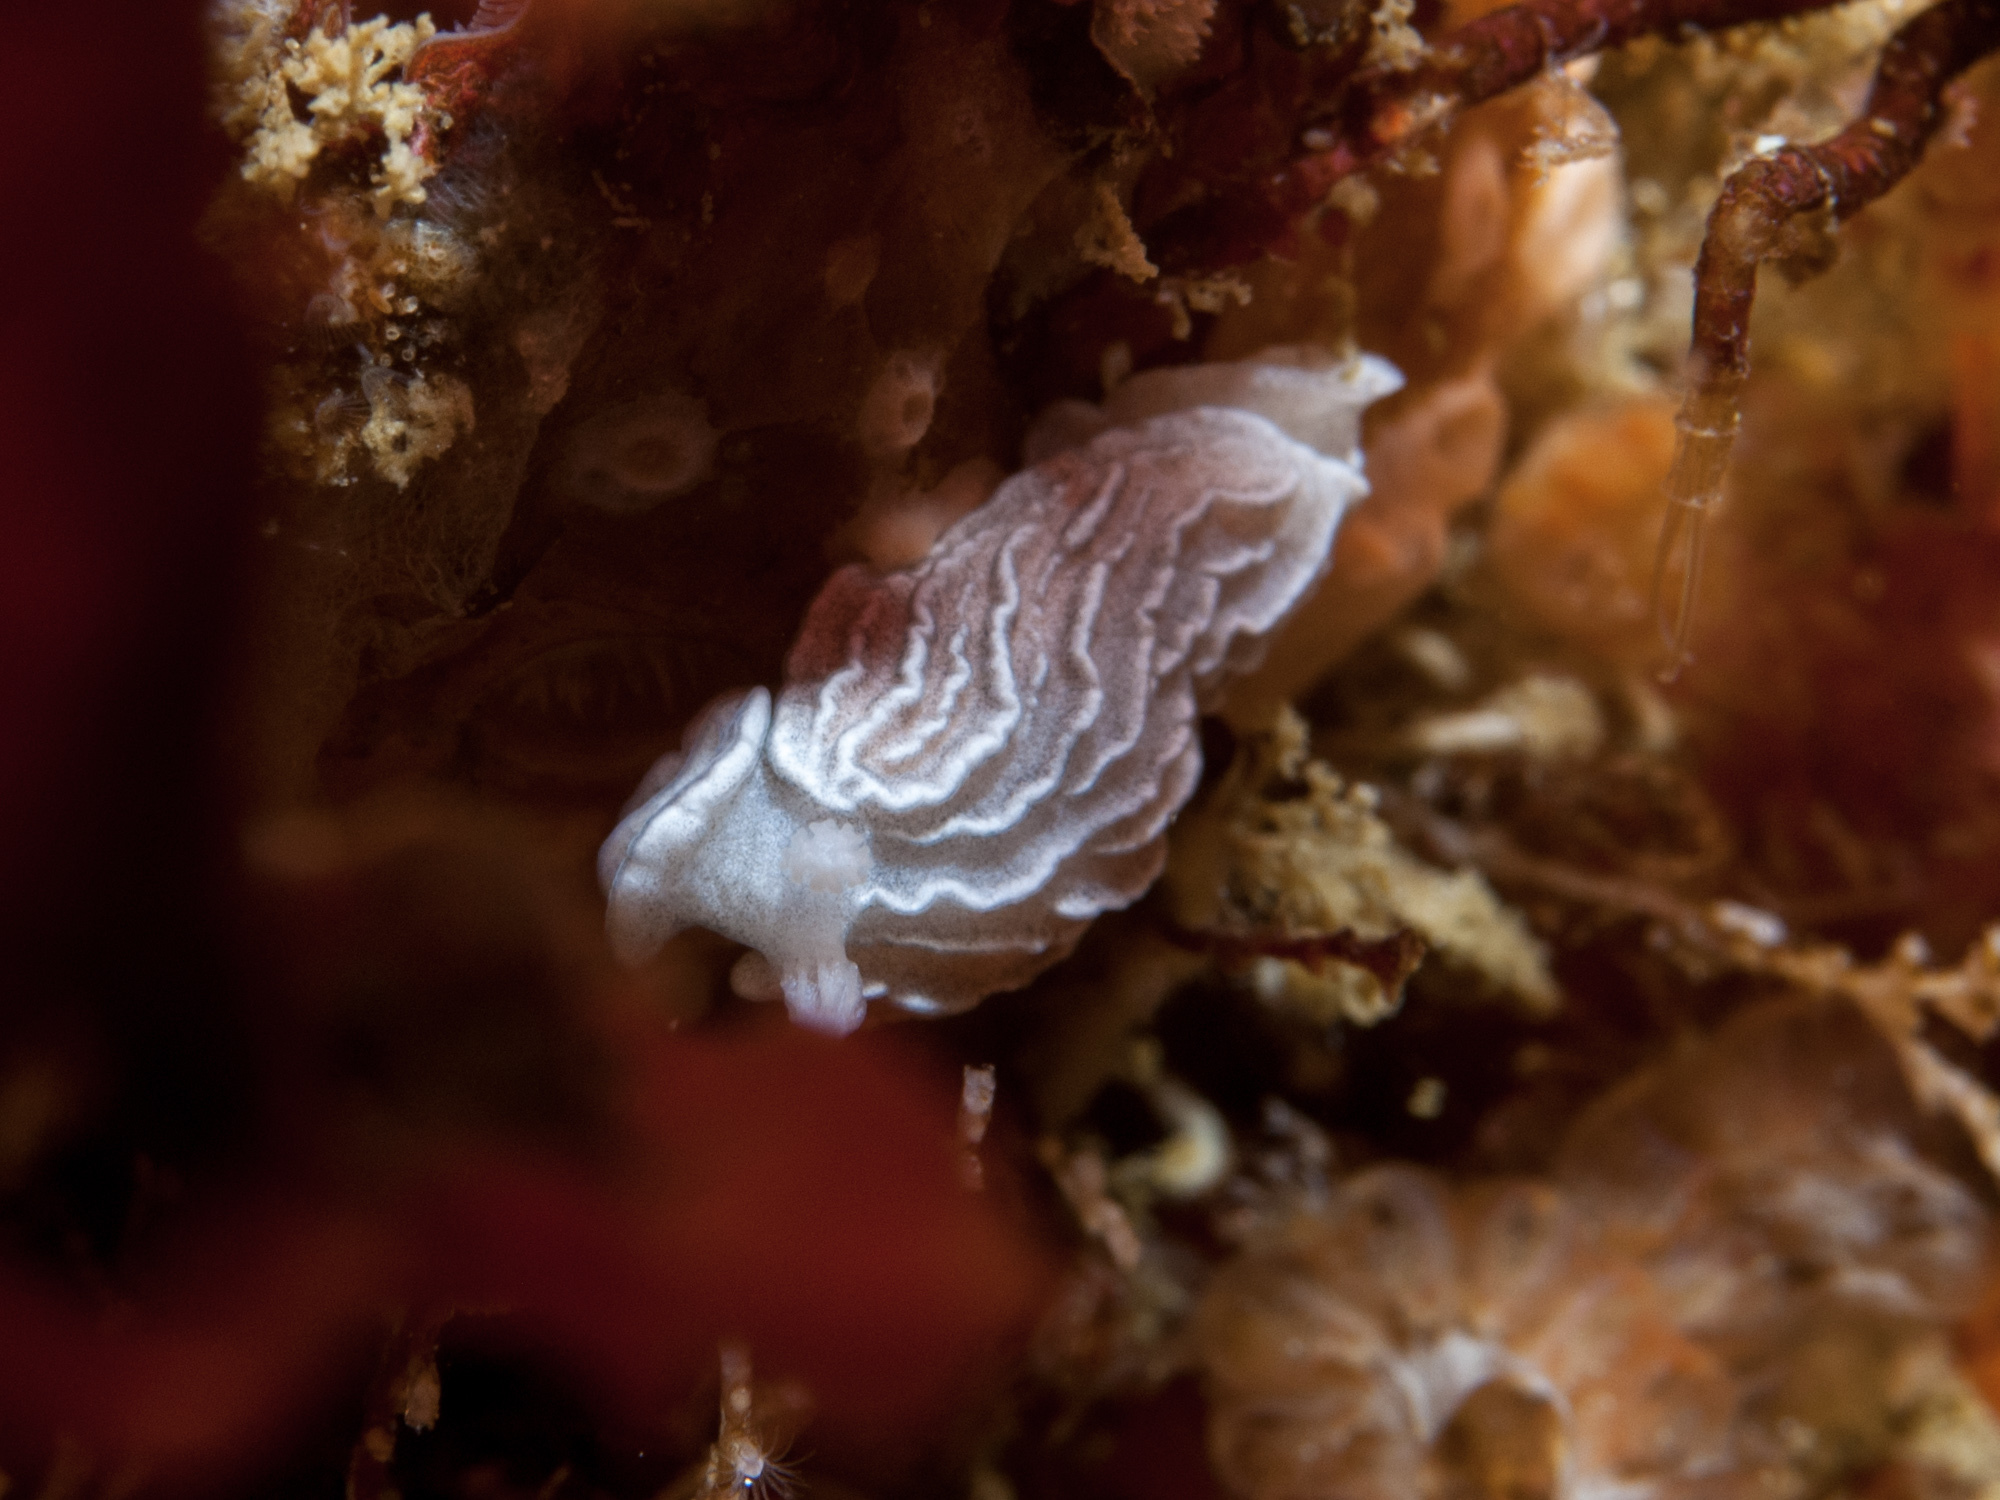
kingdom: Animalia
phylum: Mollusca
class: Gastropoda
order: Nudibranchia
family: Arminidae
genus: Dermatobranchus
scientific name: Dermatobranchus albineus
